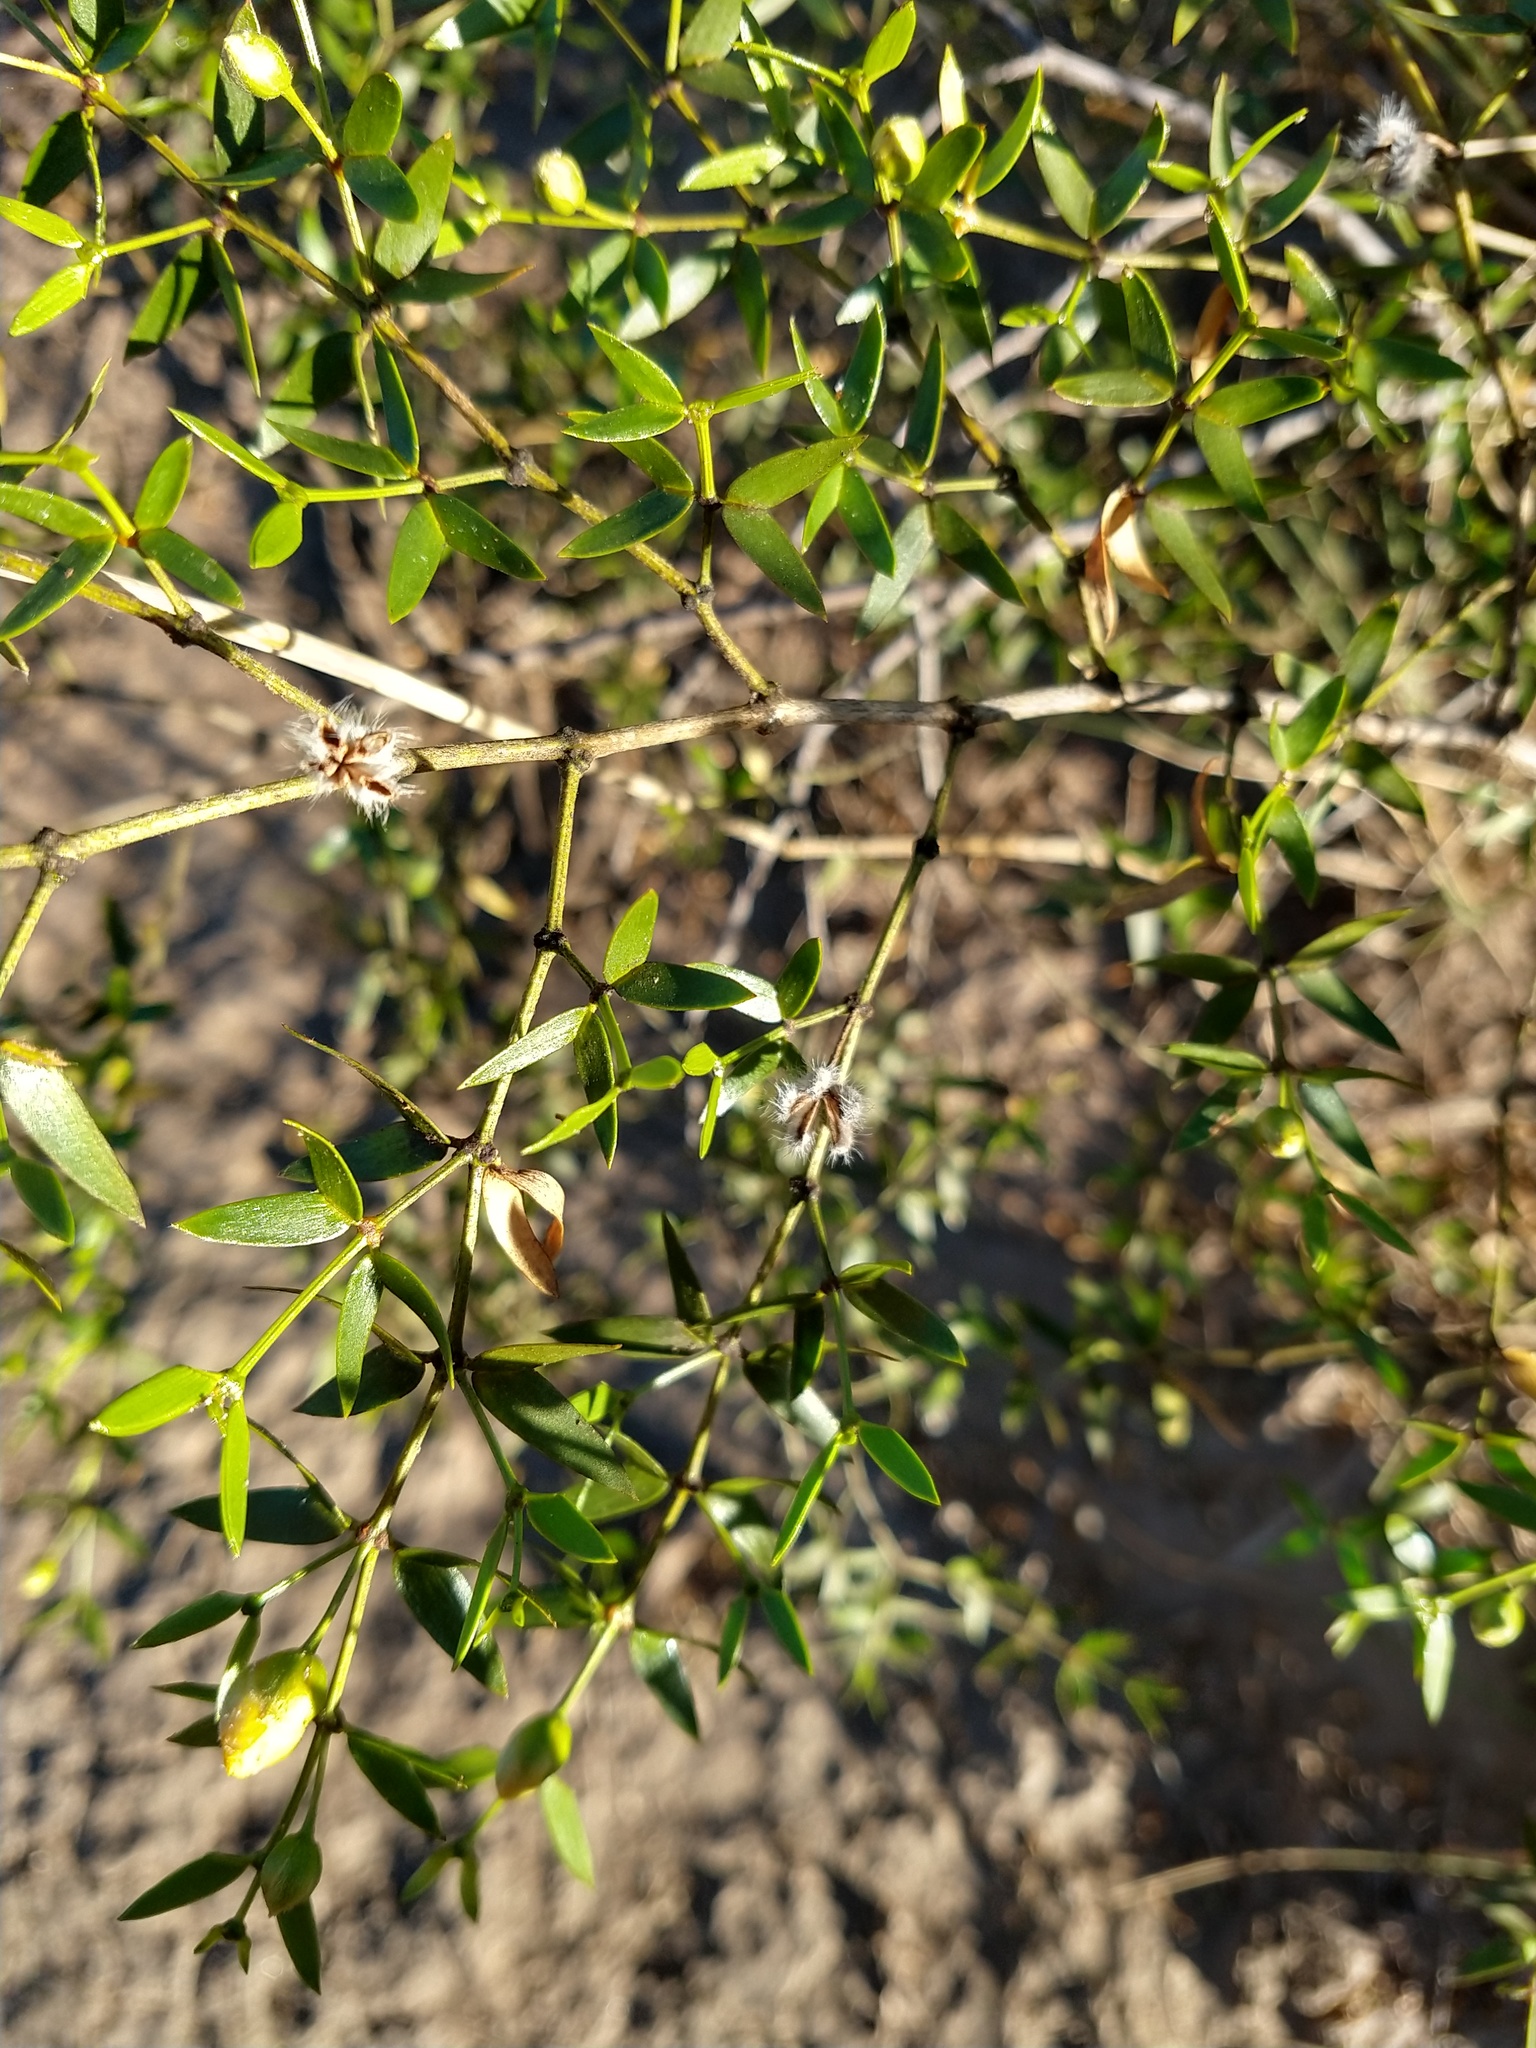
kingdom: Plantae
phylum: Tracheophyta
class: Magnoliopsida
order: Zygophyllales
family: Zygophyllaceae
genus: Larrea
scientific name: Larrea divaricata
